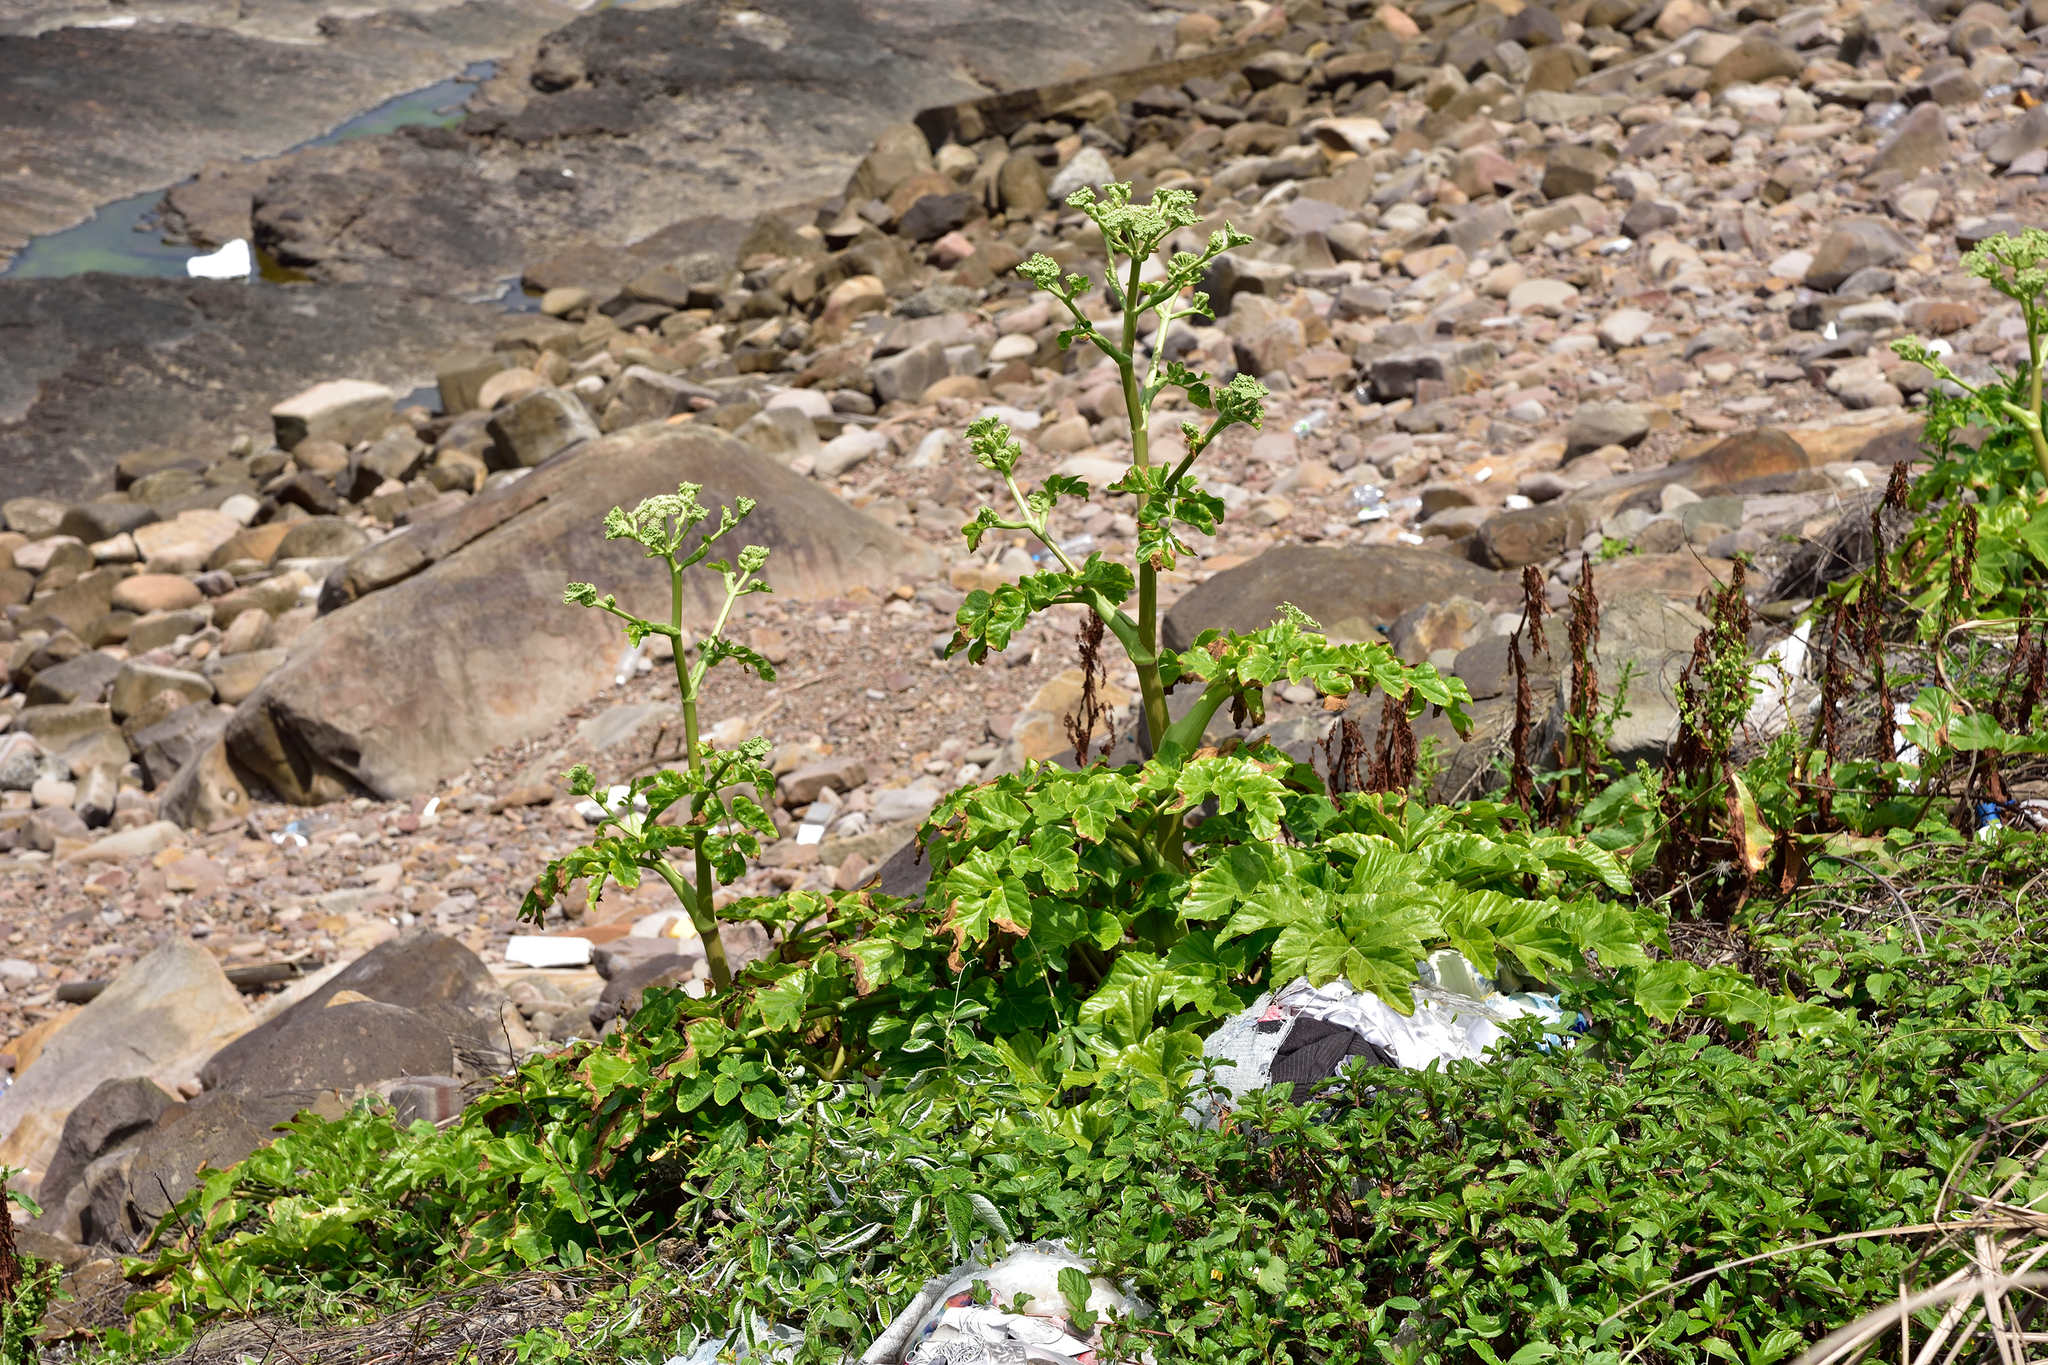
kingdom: Plantae
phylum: Tracheophyta
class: Magnoliopsida
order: Apiales
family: Apiaceae
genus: Angelica
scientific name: Angelica hirsutiflora
